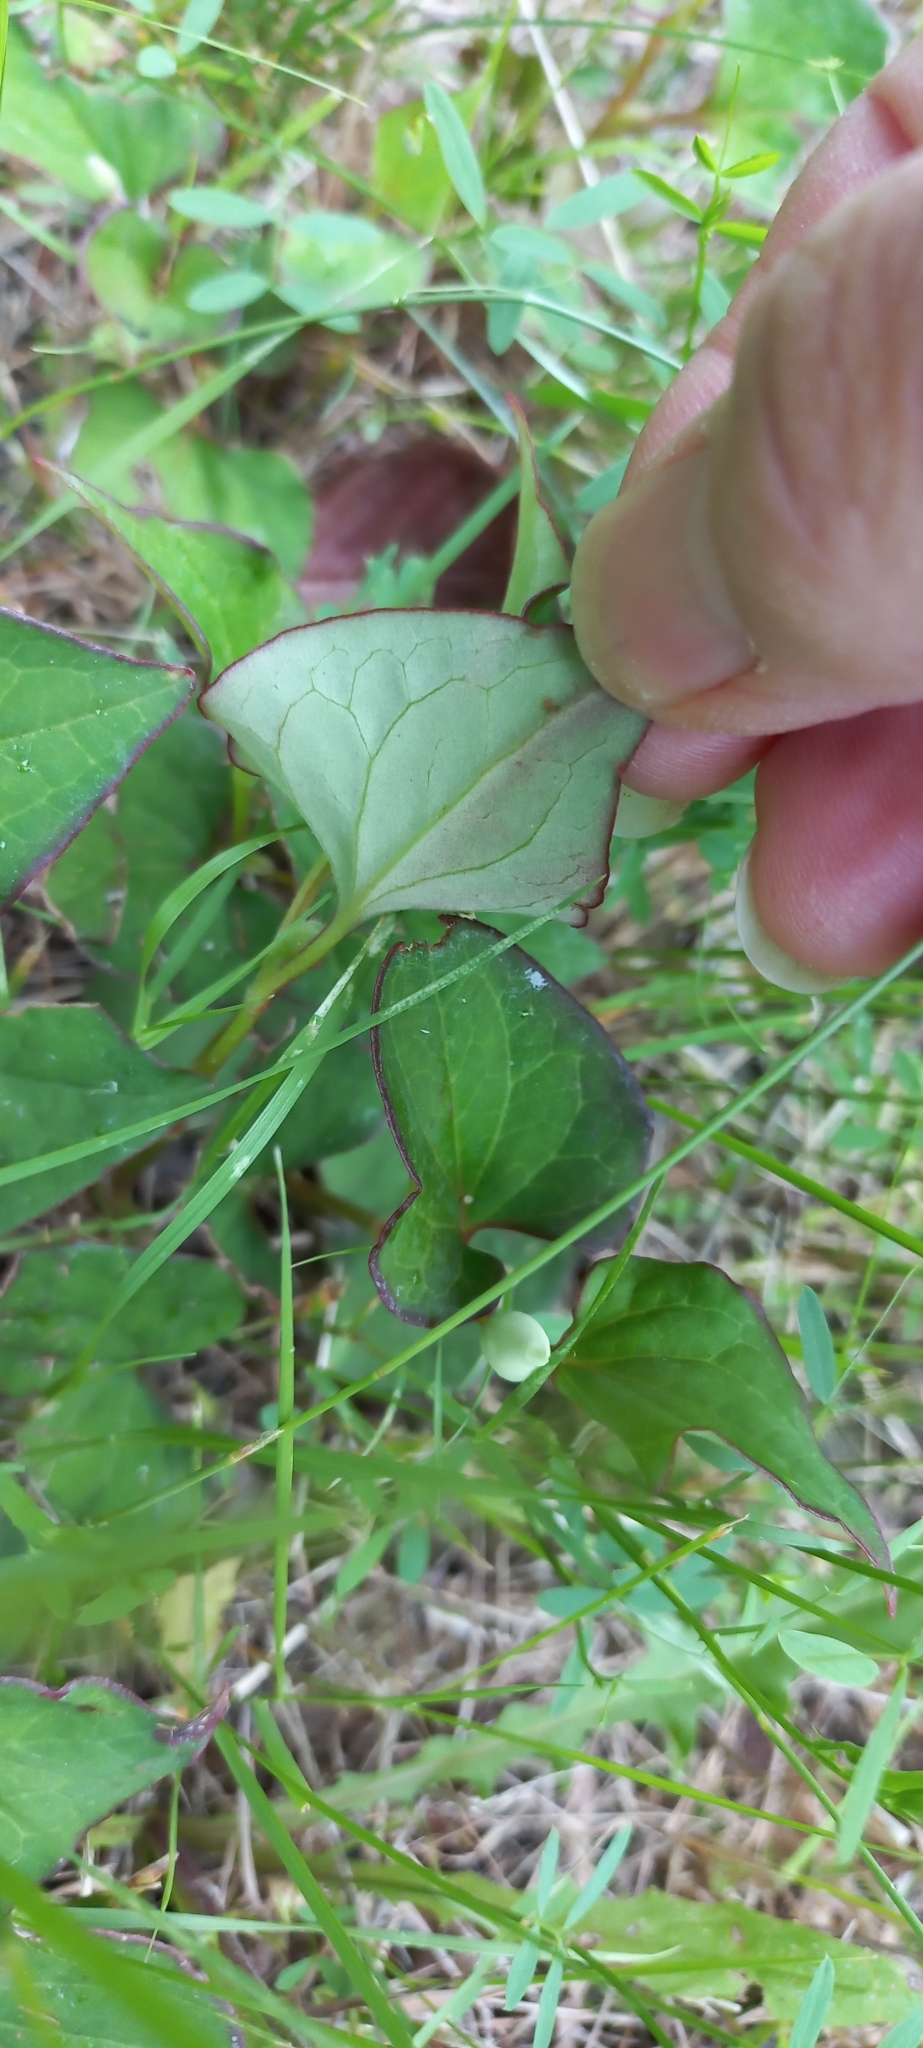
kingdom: Plantae
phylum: Tracheophyta
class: Magnoliopsida
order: Piperales
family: Saururaceae
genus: Houttuynia
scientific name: Houttuynia cordata
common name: Chameleon
